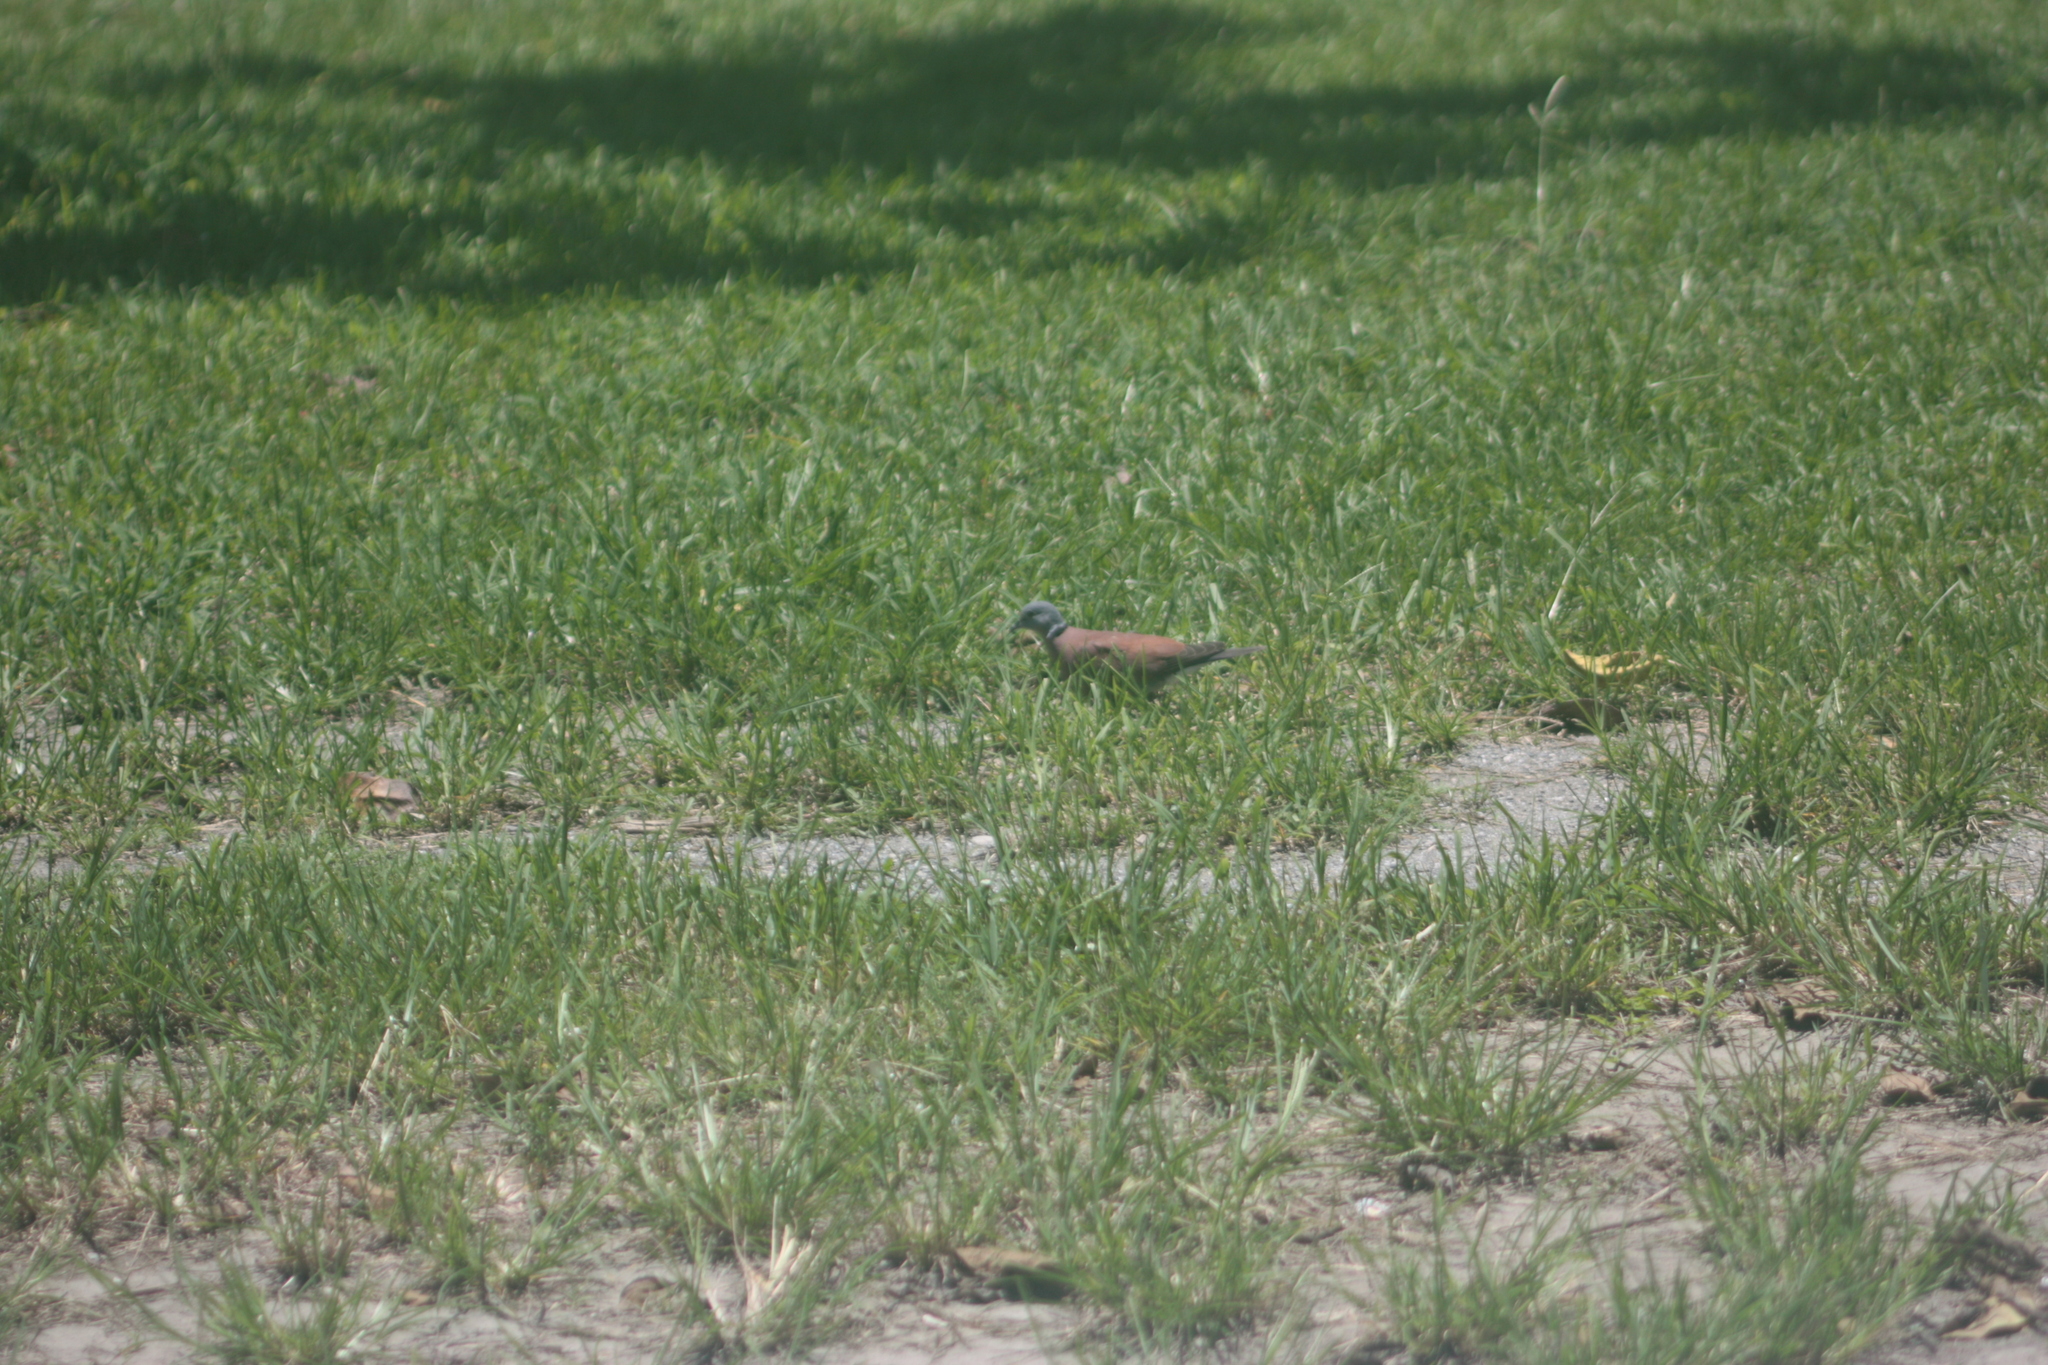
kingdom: Animalia
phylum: Chordata
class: Aves
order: Columbiformes
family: Columbidae
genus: Streptopelia
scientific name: Streptopelia tranquebarica
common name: Red turtle dove
